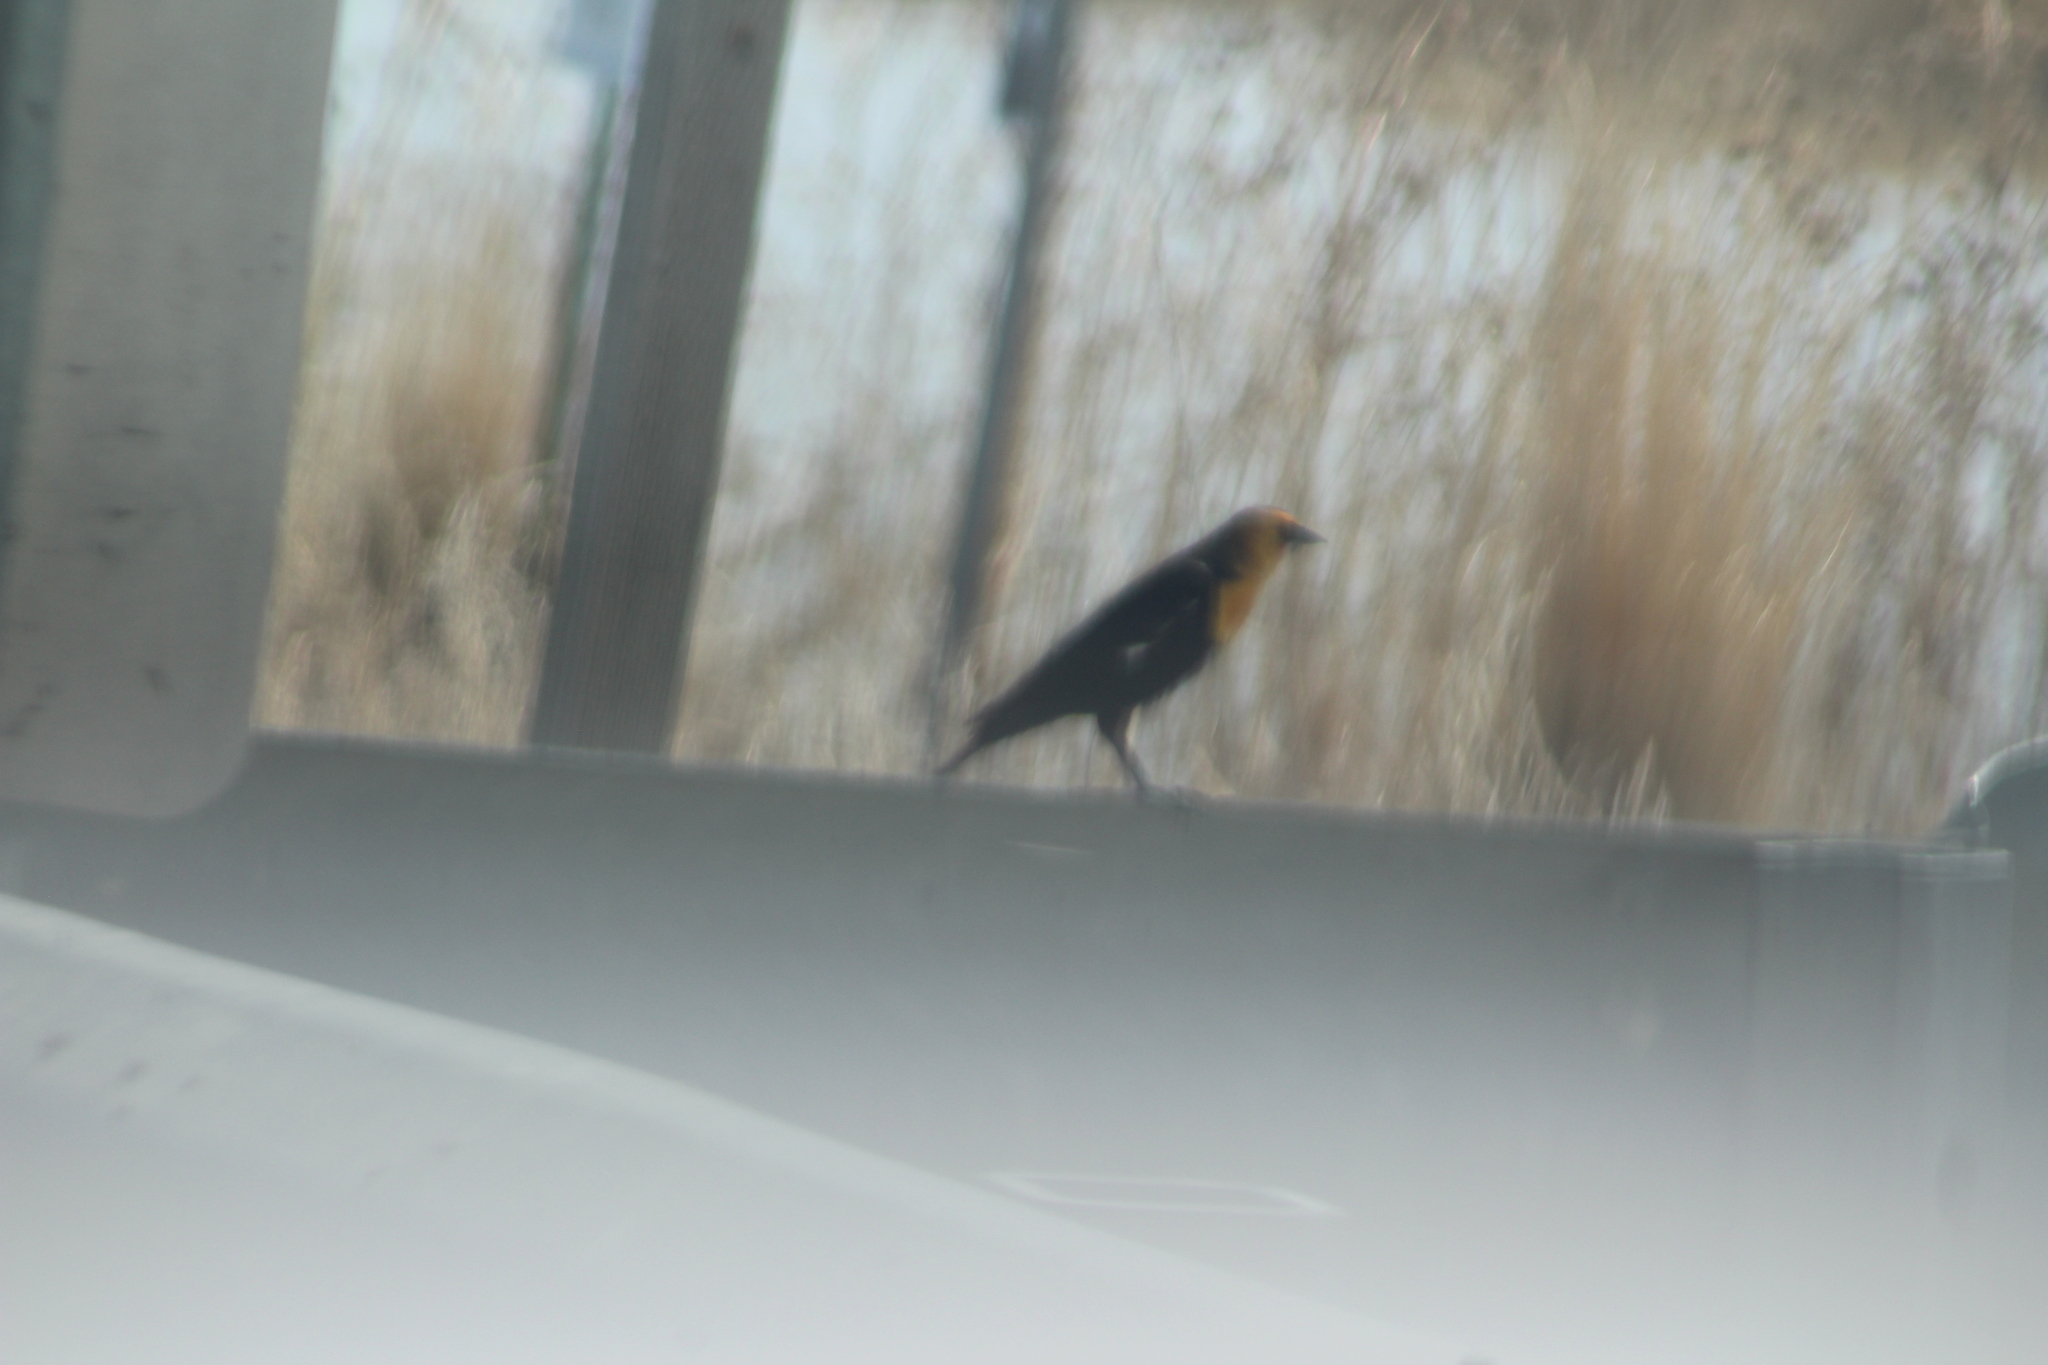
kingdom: Animalia
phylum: Chordata
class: Aves
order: Passeriformes
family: Icteridae
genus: Xanthocephalus
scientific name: Xanthocephalus xanthocephalus
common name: Yellow-headed blackbird
